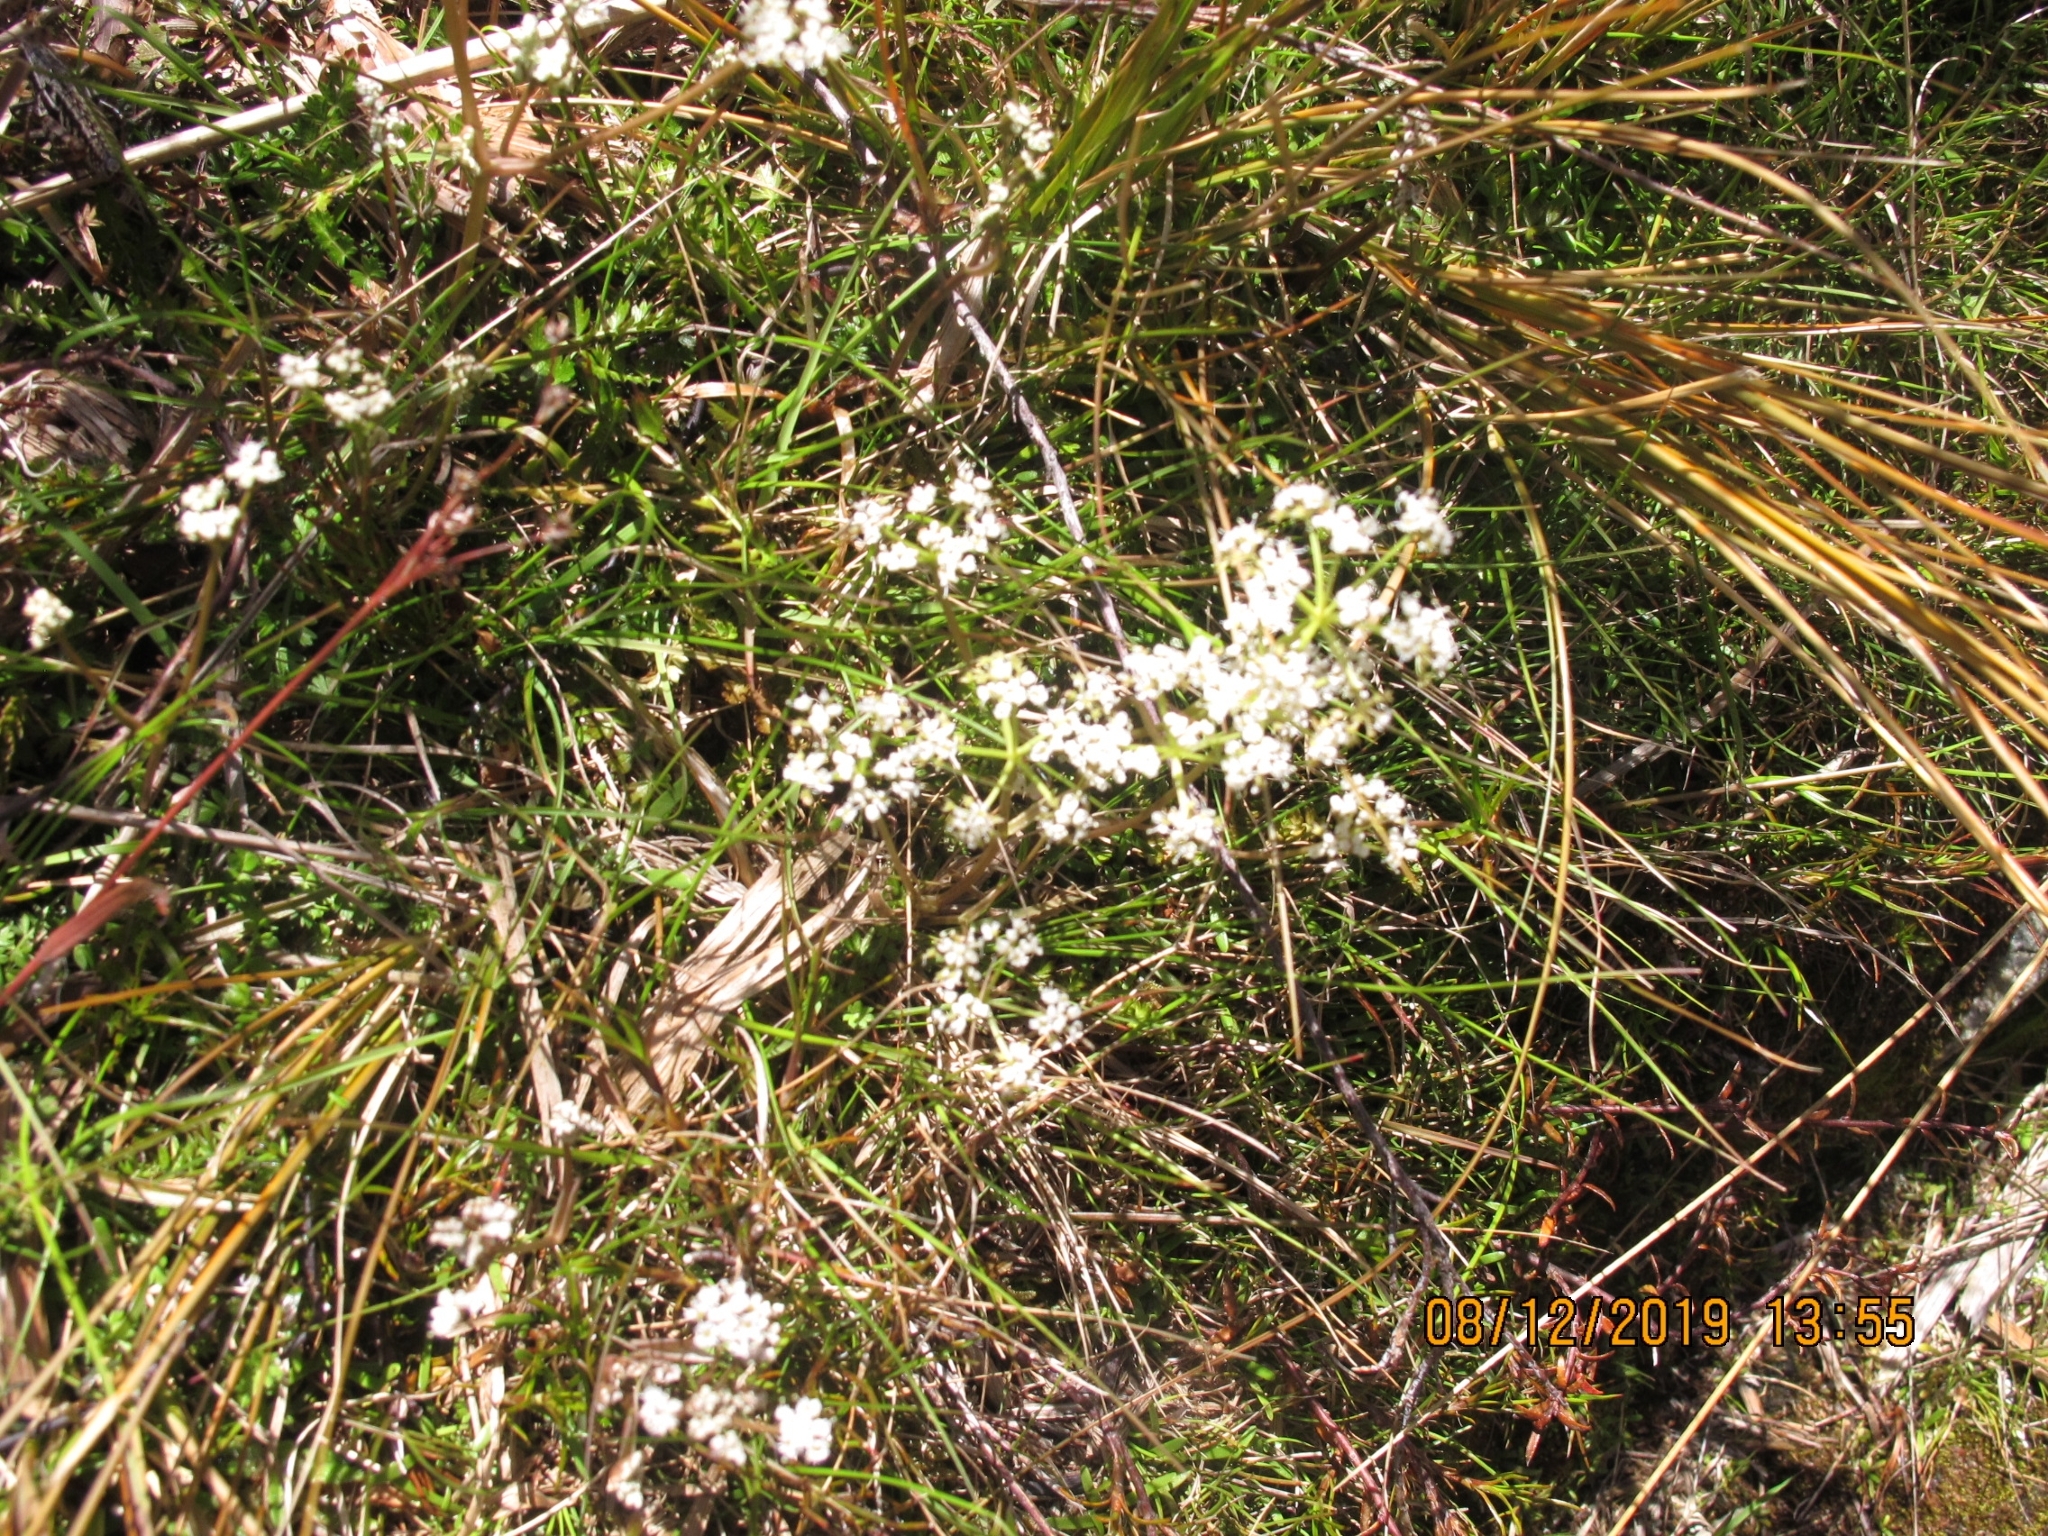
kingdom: Plantae
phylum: Tracheophyta
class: Magnoliopsida
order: Apiales
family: Apiaceae
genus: Anisotome
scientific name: Anisotome aromatica
